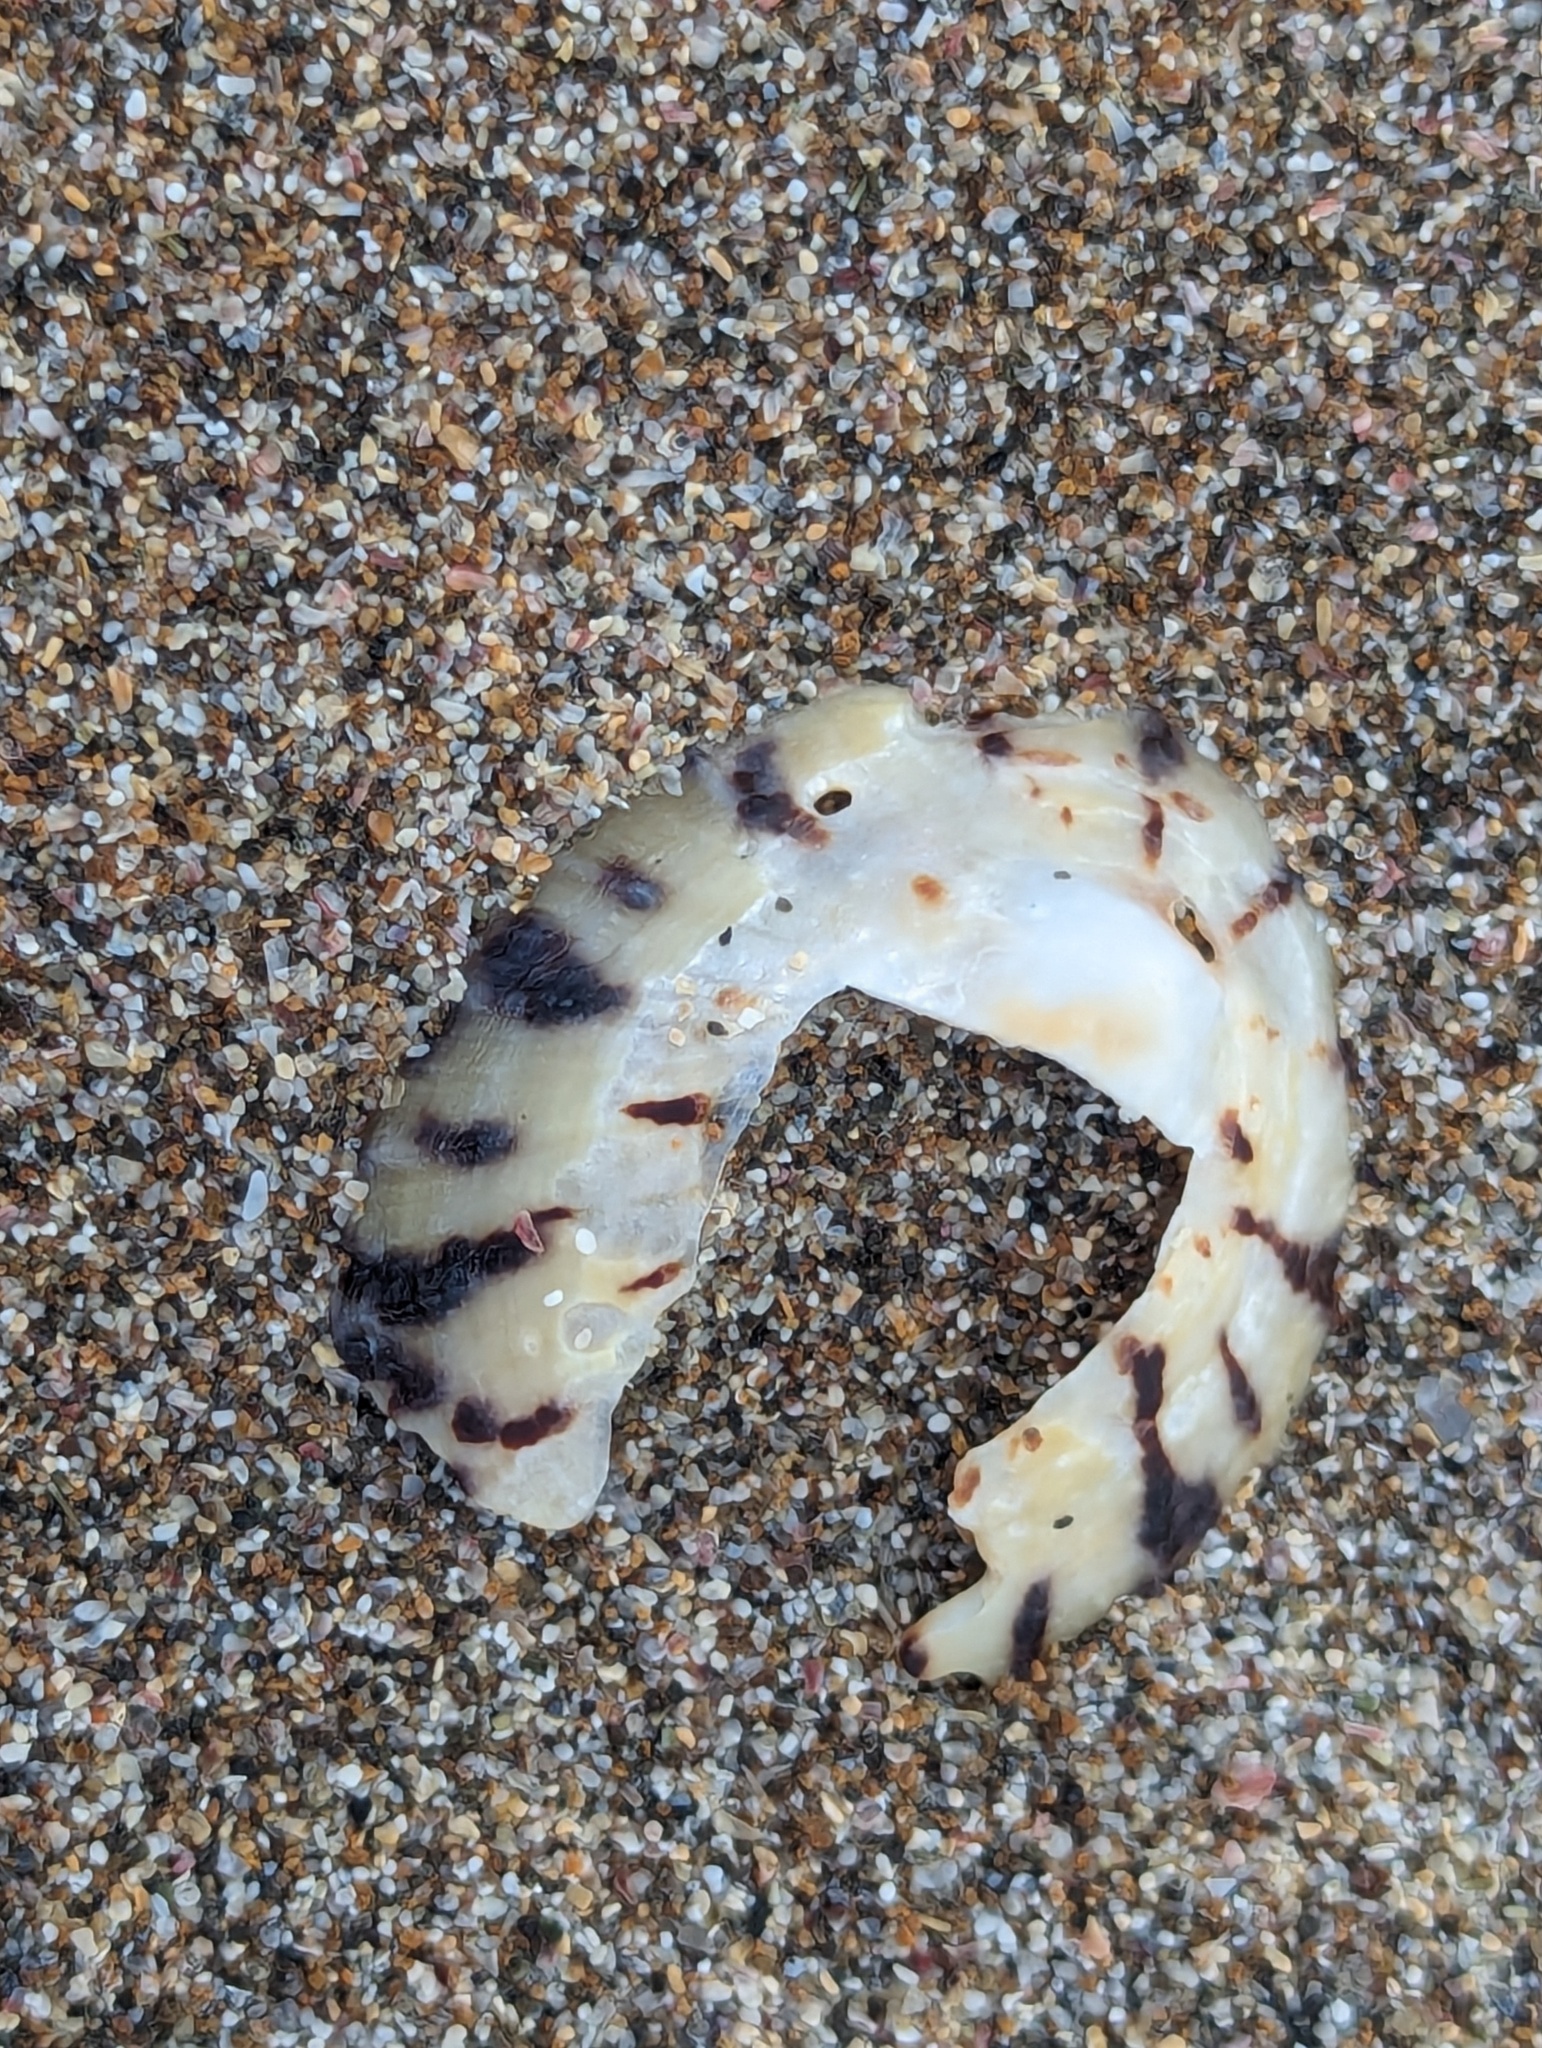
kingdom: Animalia
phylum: Mollusca
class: Gastropoda
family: Nacellidae
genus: Cellana
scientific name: Cellana radians
